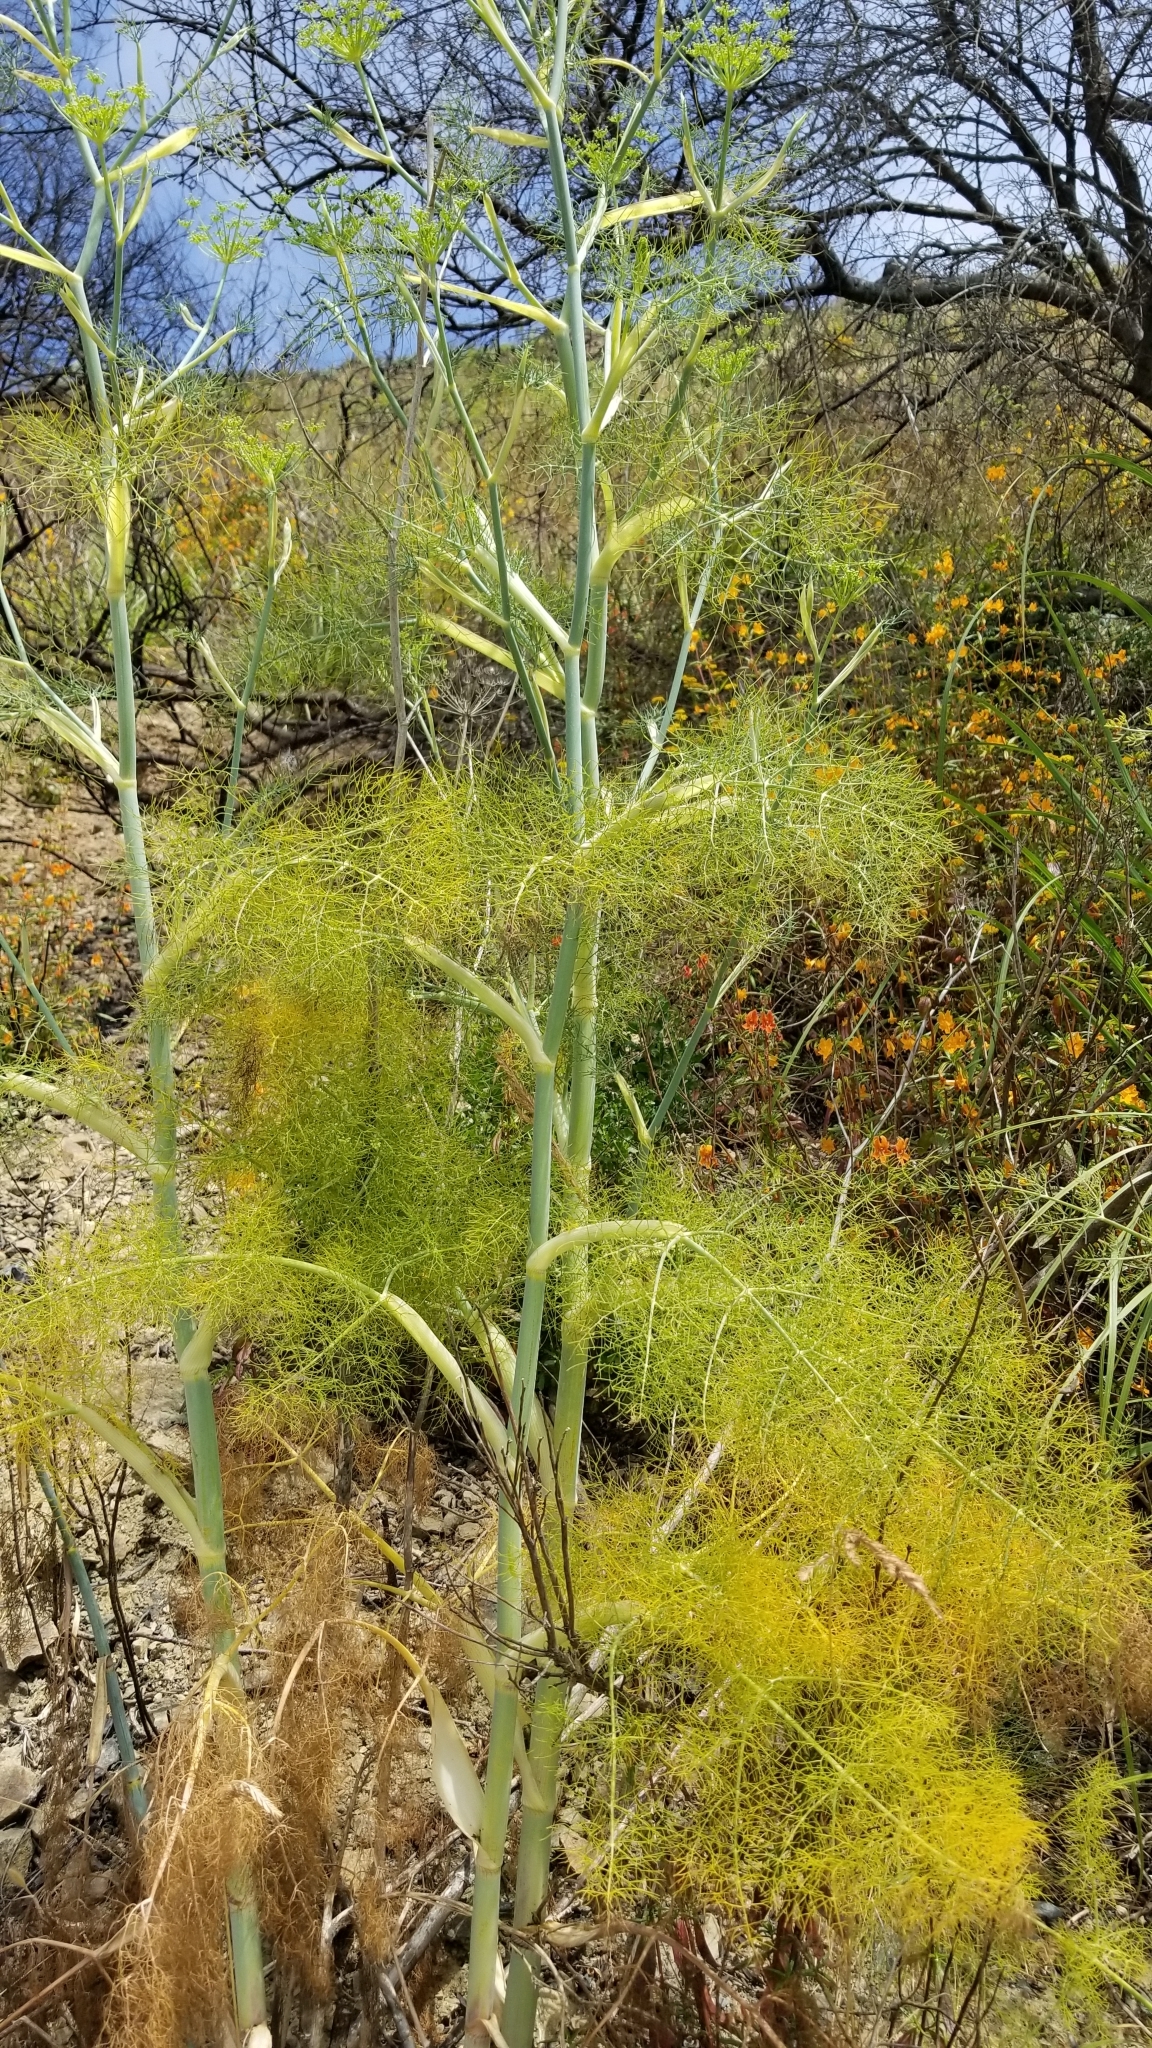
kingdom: Plantae
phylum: Tracheophyta
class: Magnoliopsida
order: Apiales
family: Apiaceae
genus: Foeniculum
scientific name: Foeniculum vulgare
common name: Fennel
